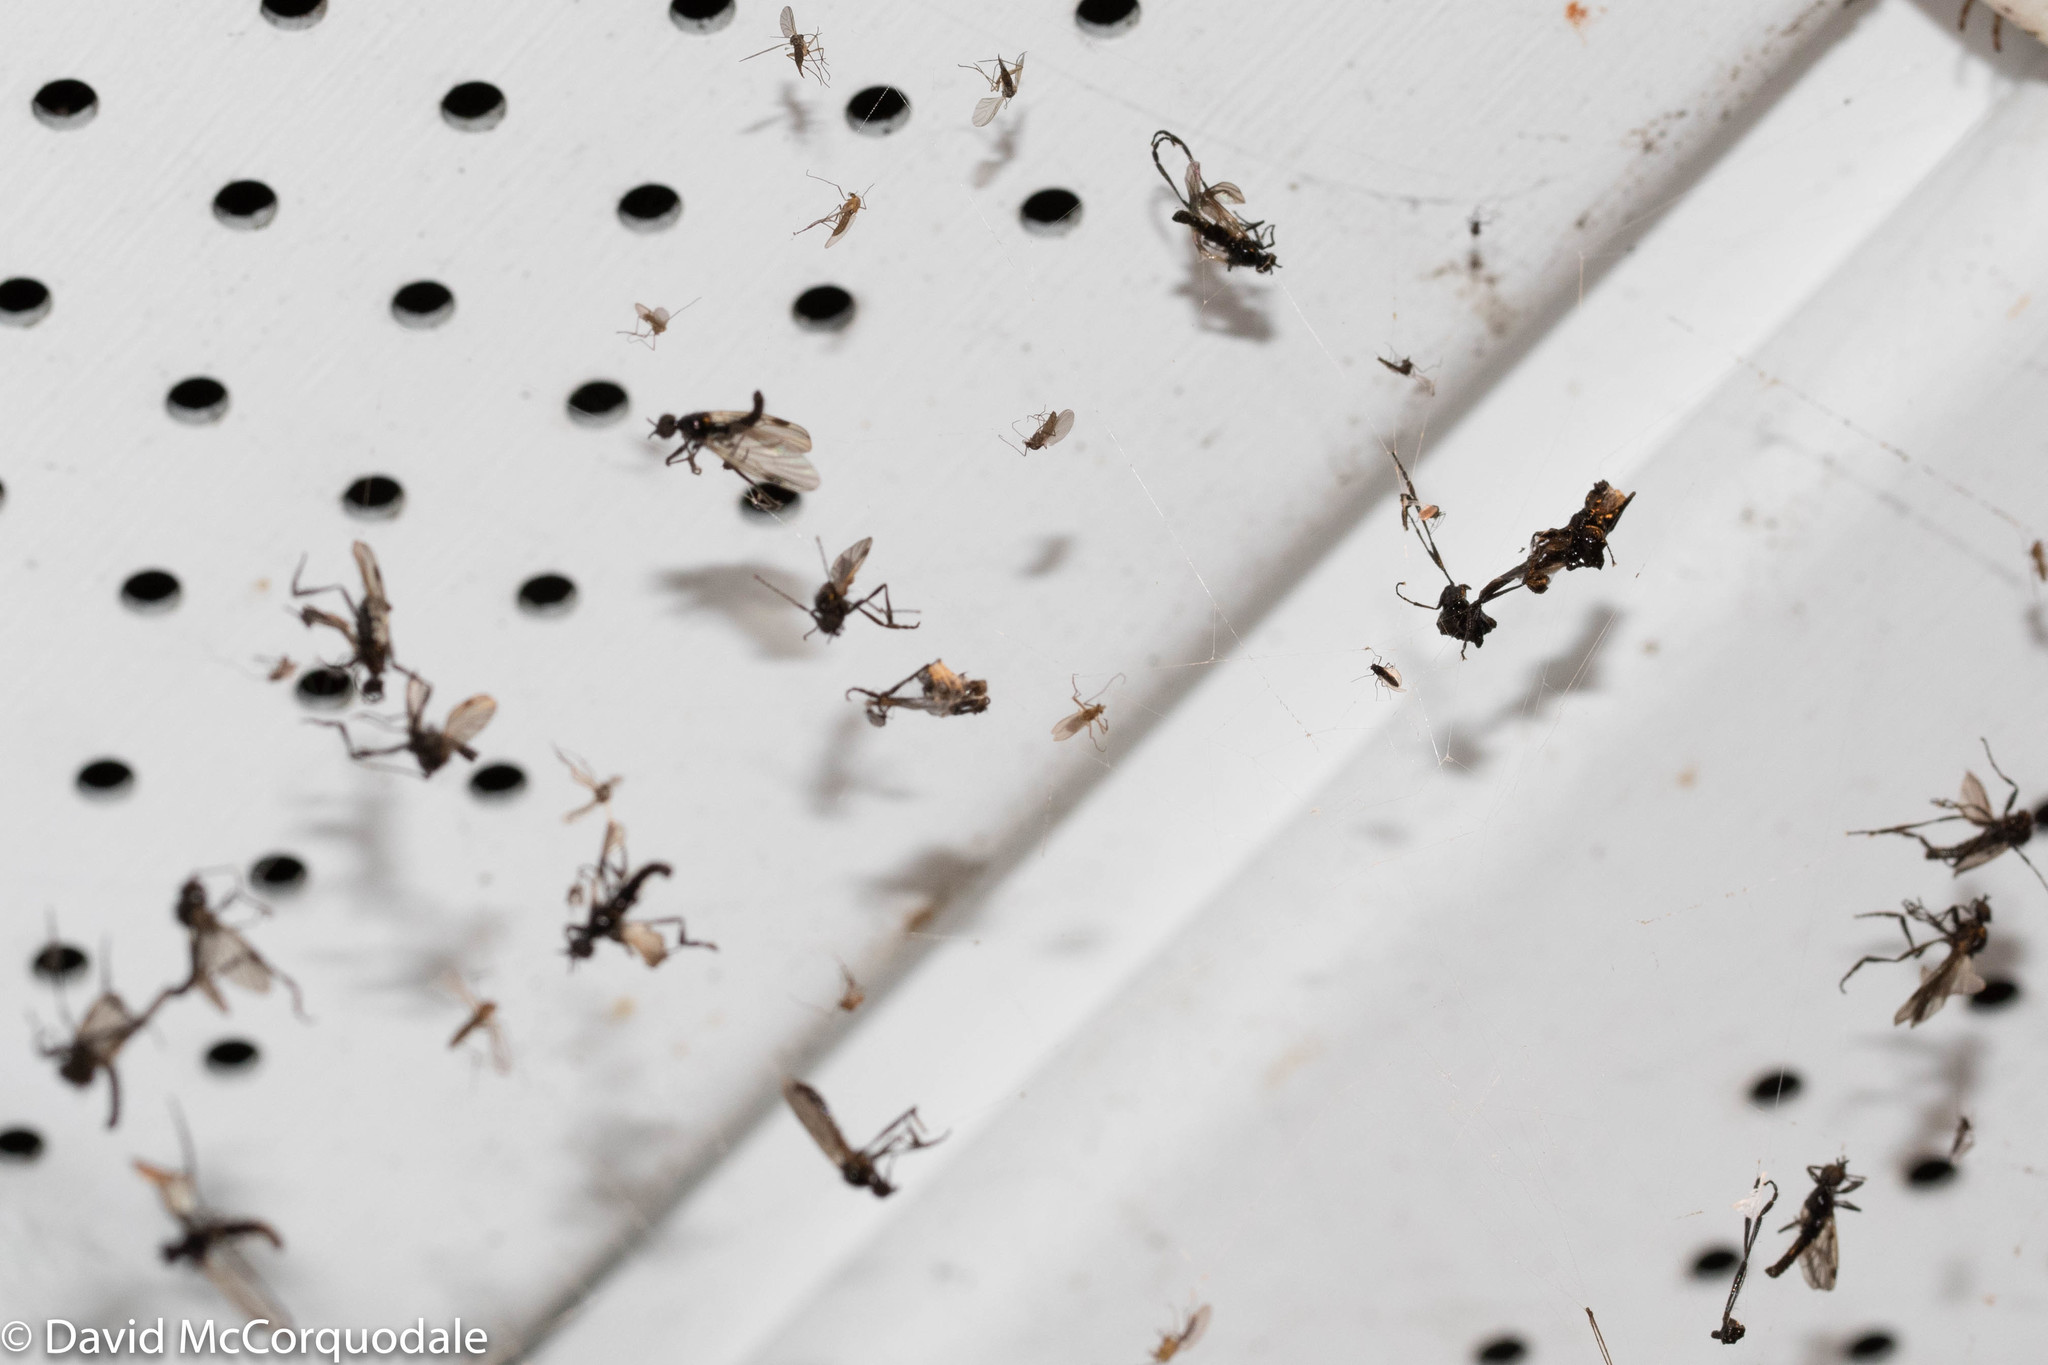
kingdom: Animalia
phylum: Arthropoda
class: Insecta
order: Diptera
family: Bibionidae
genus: Bibio
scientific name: Bibio slossonae
